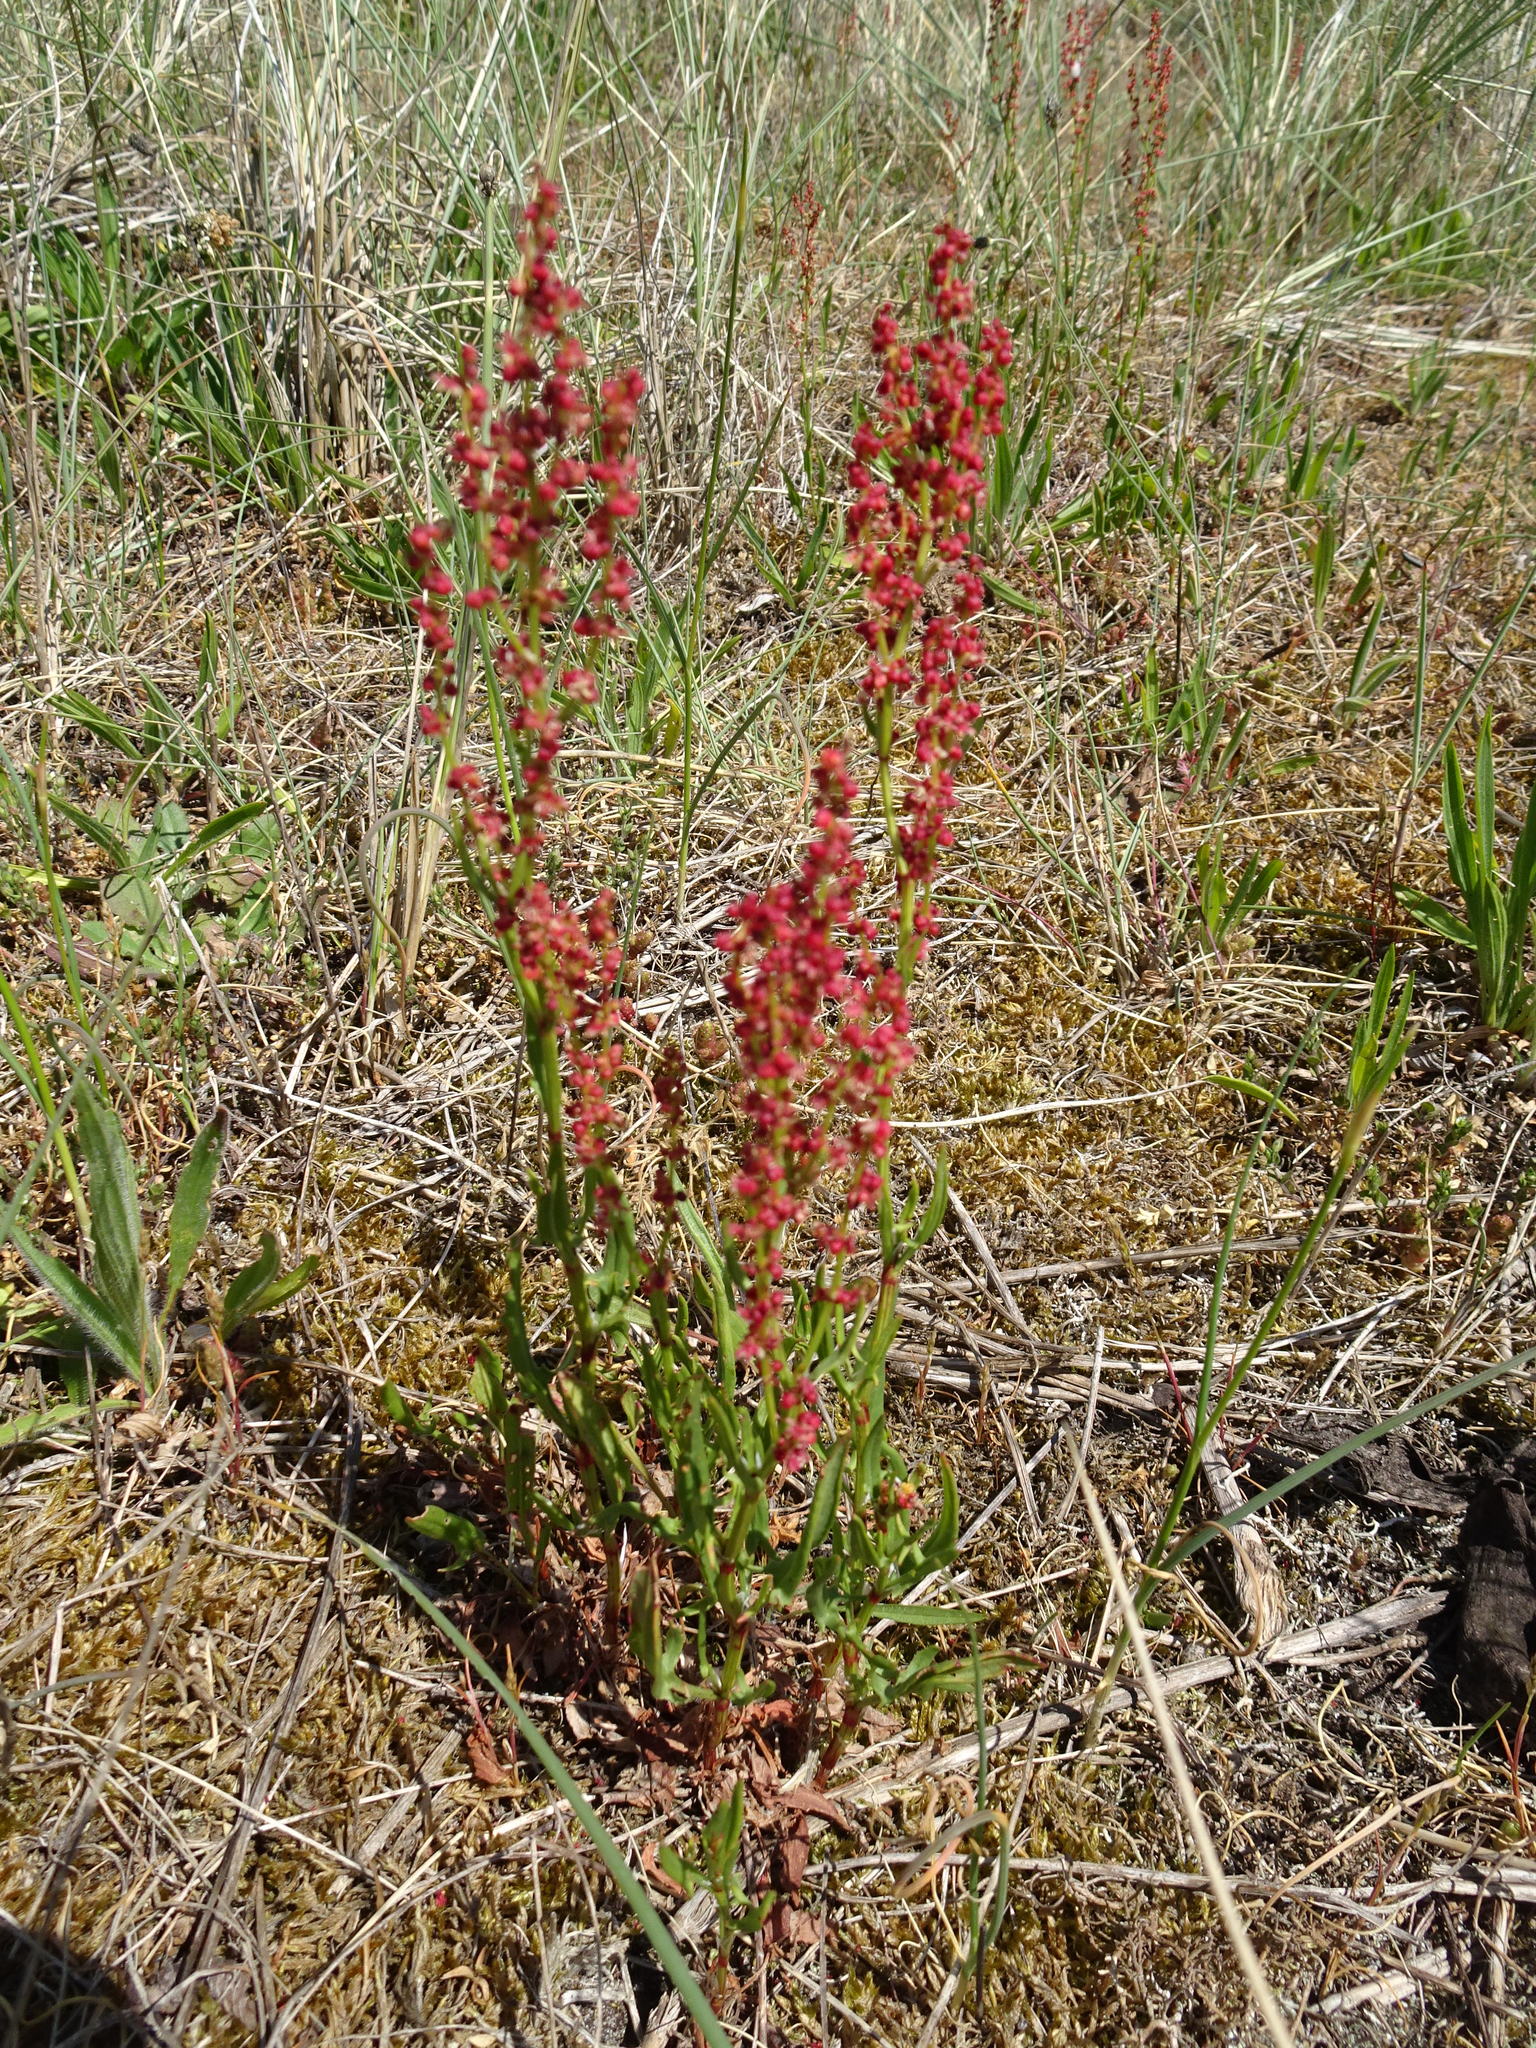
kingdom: Plantae
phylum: Tracheophyta
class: Magnoliopsida
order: Caryophyllales
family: Polygonaceae
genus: Rumex
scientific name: Rumex acetosella
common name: Common sheep sorrel
